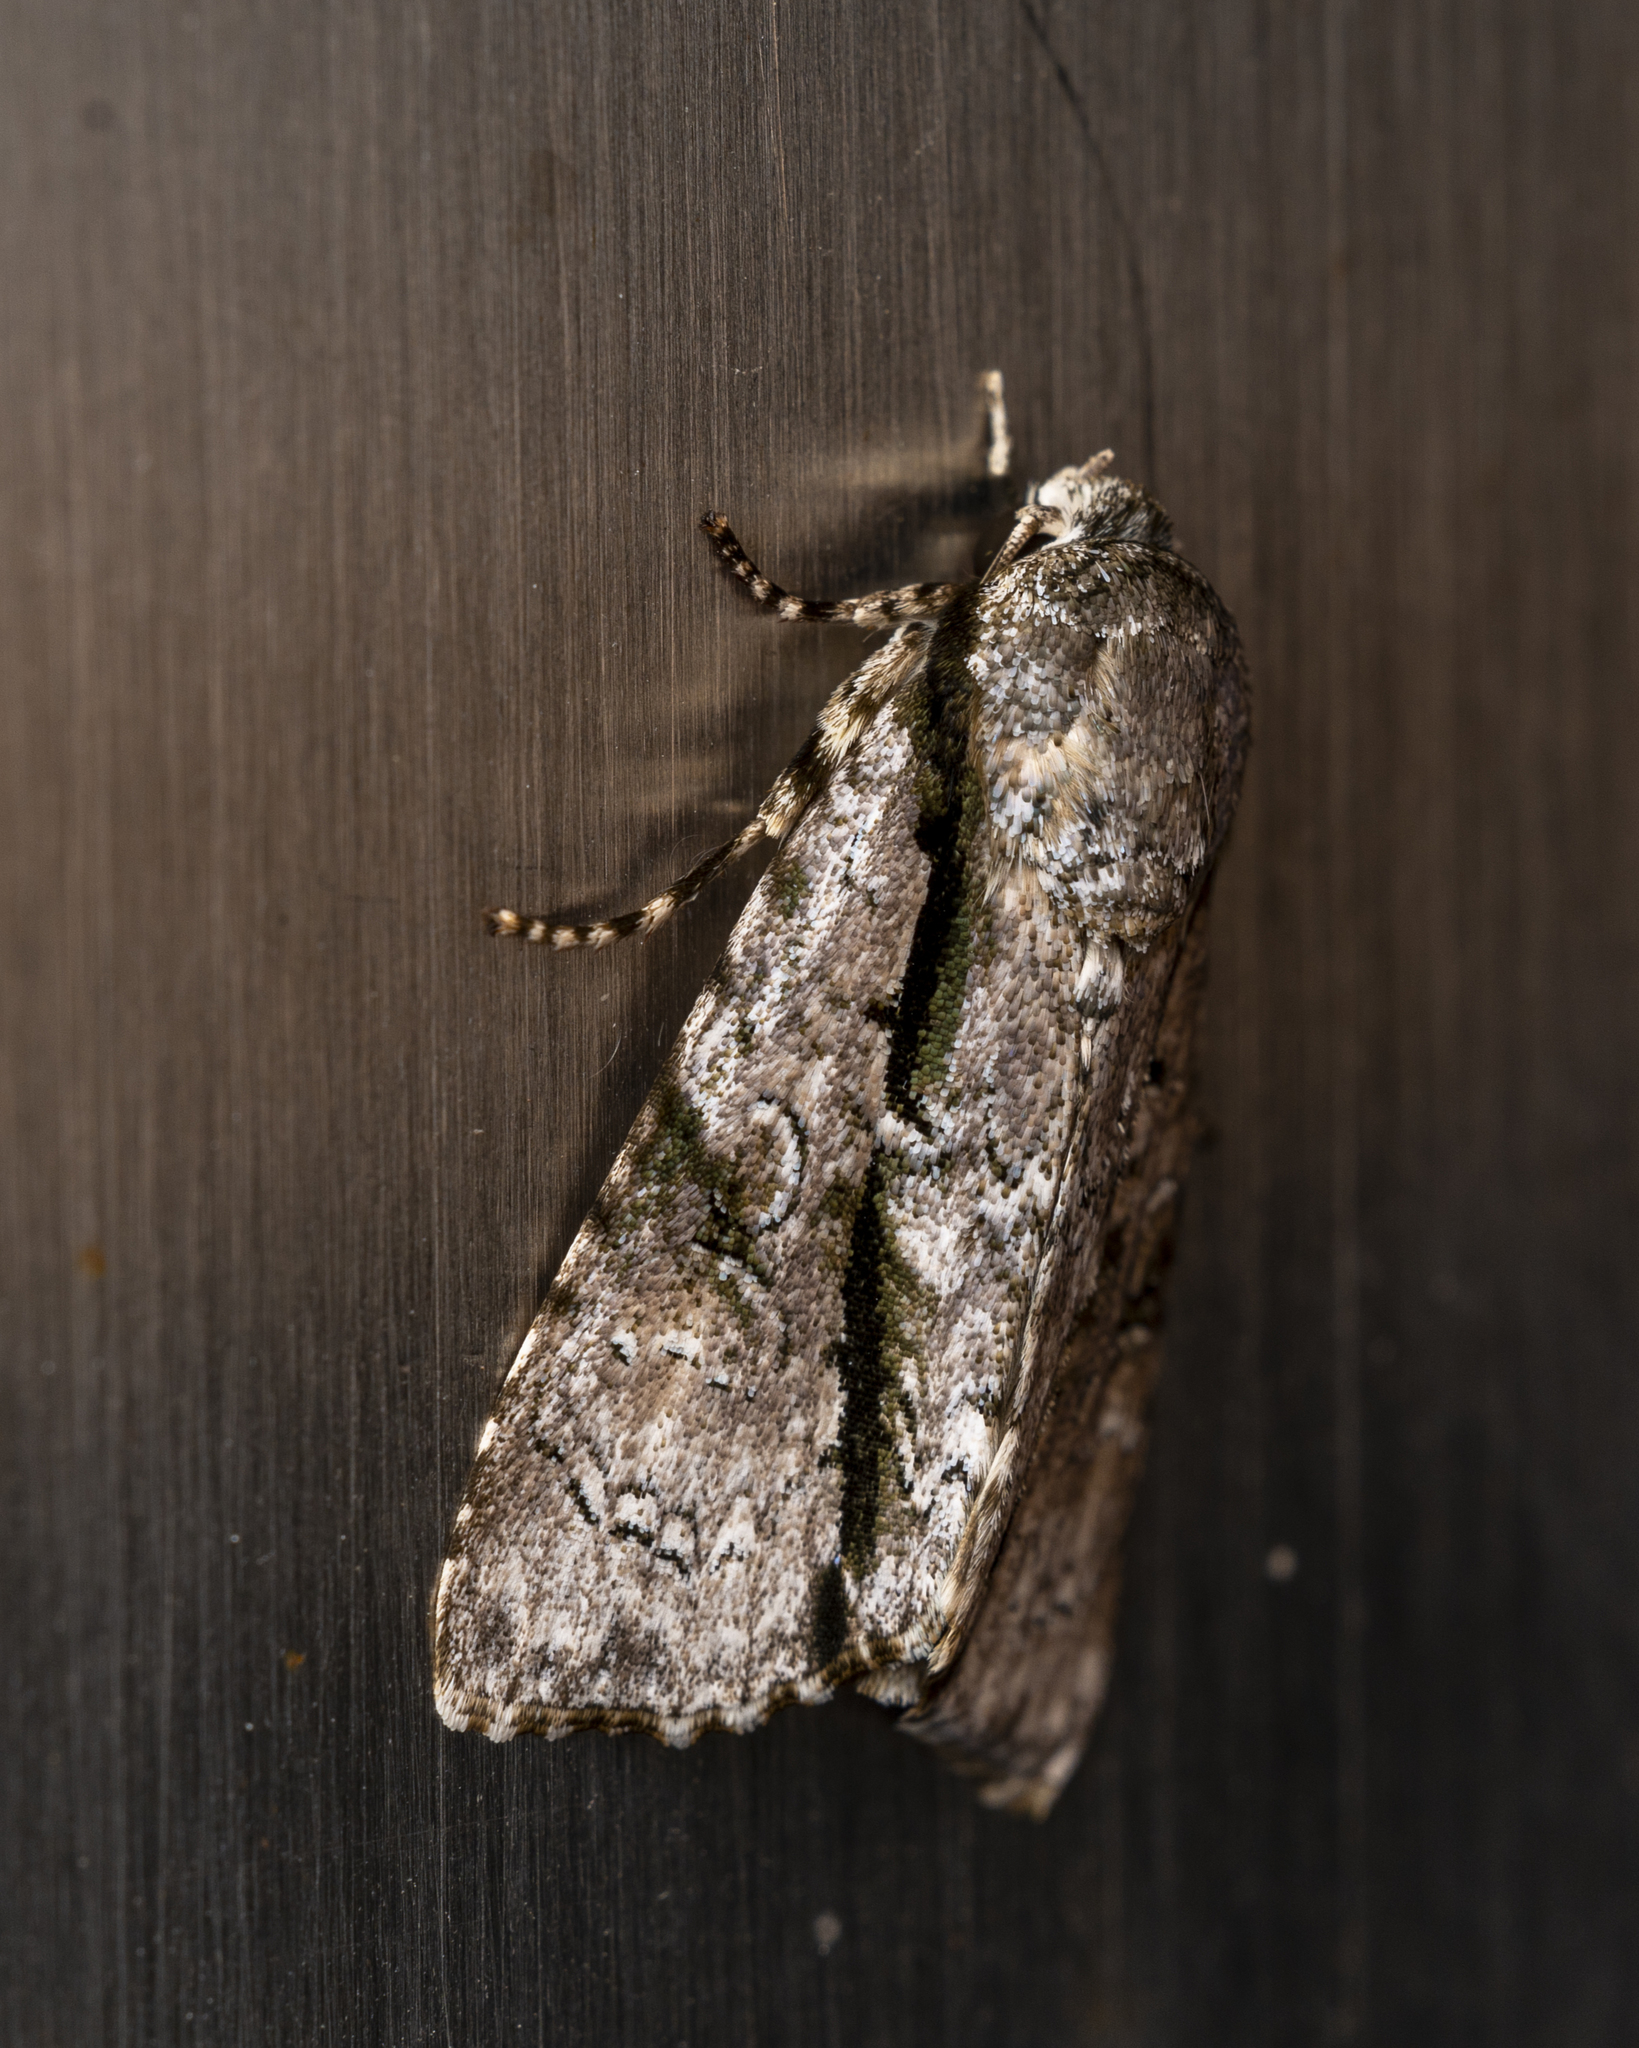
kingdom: Animalia
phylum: Arthropoda
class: Insecta
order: Lepidoptera
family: Noctuidae
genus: Fascionycta
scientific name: Fascionycta fasciata
